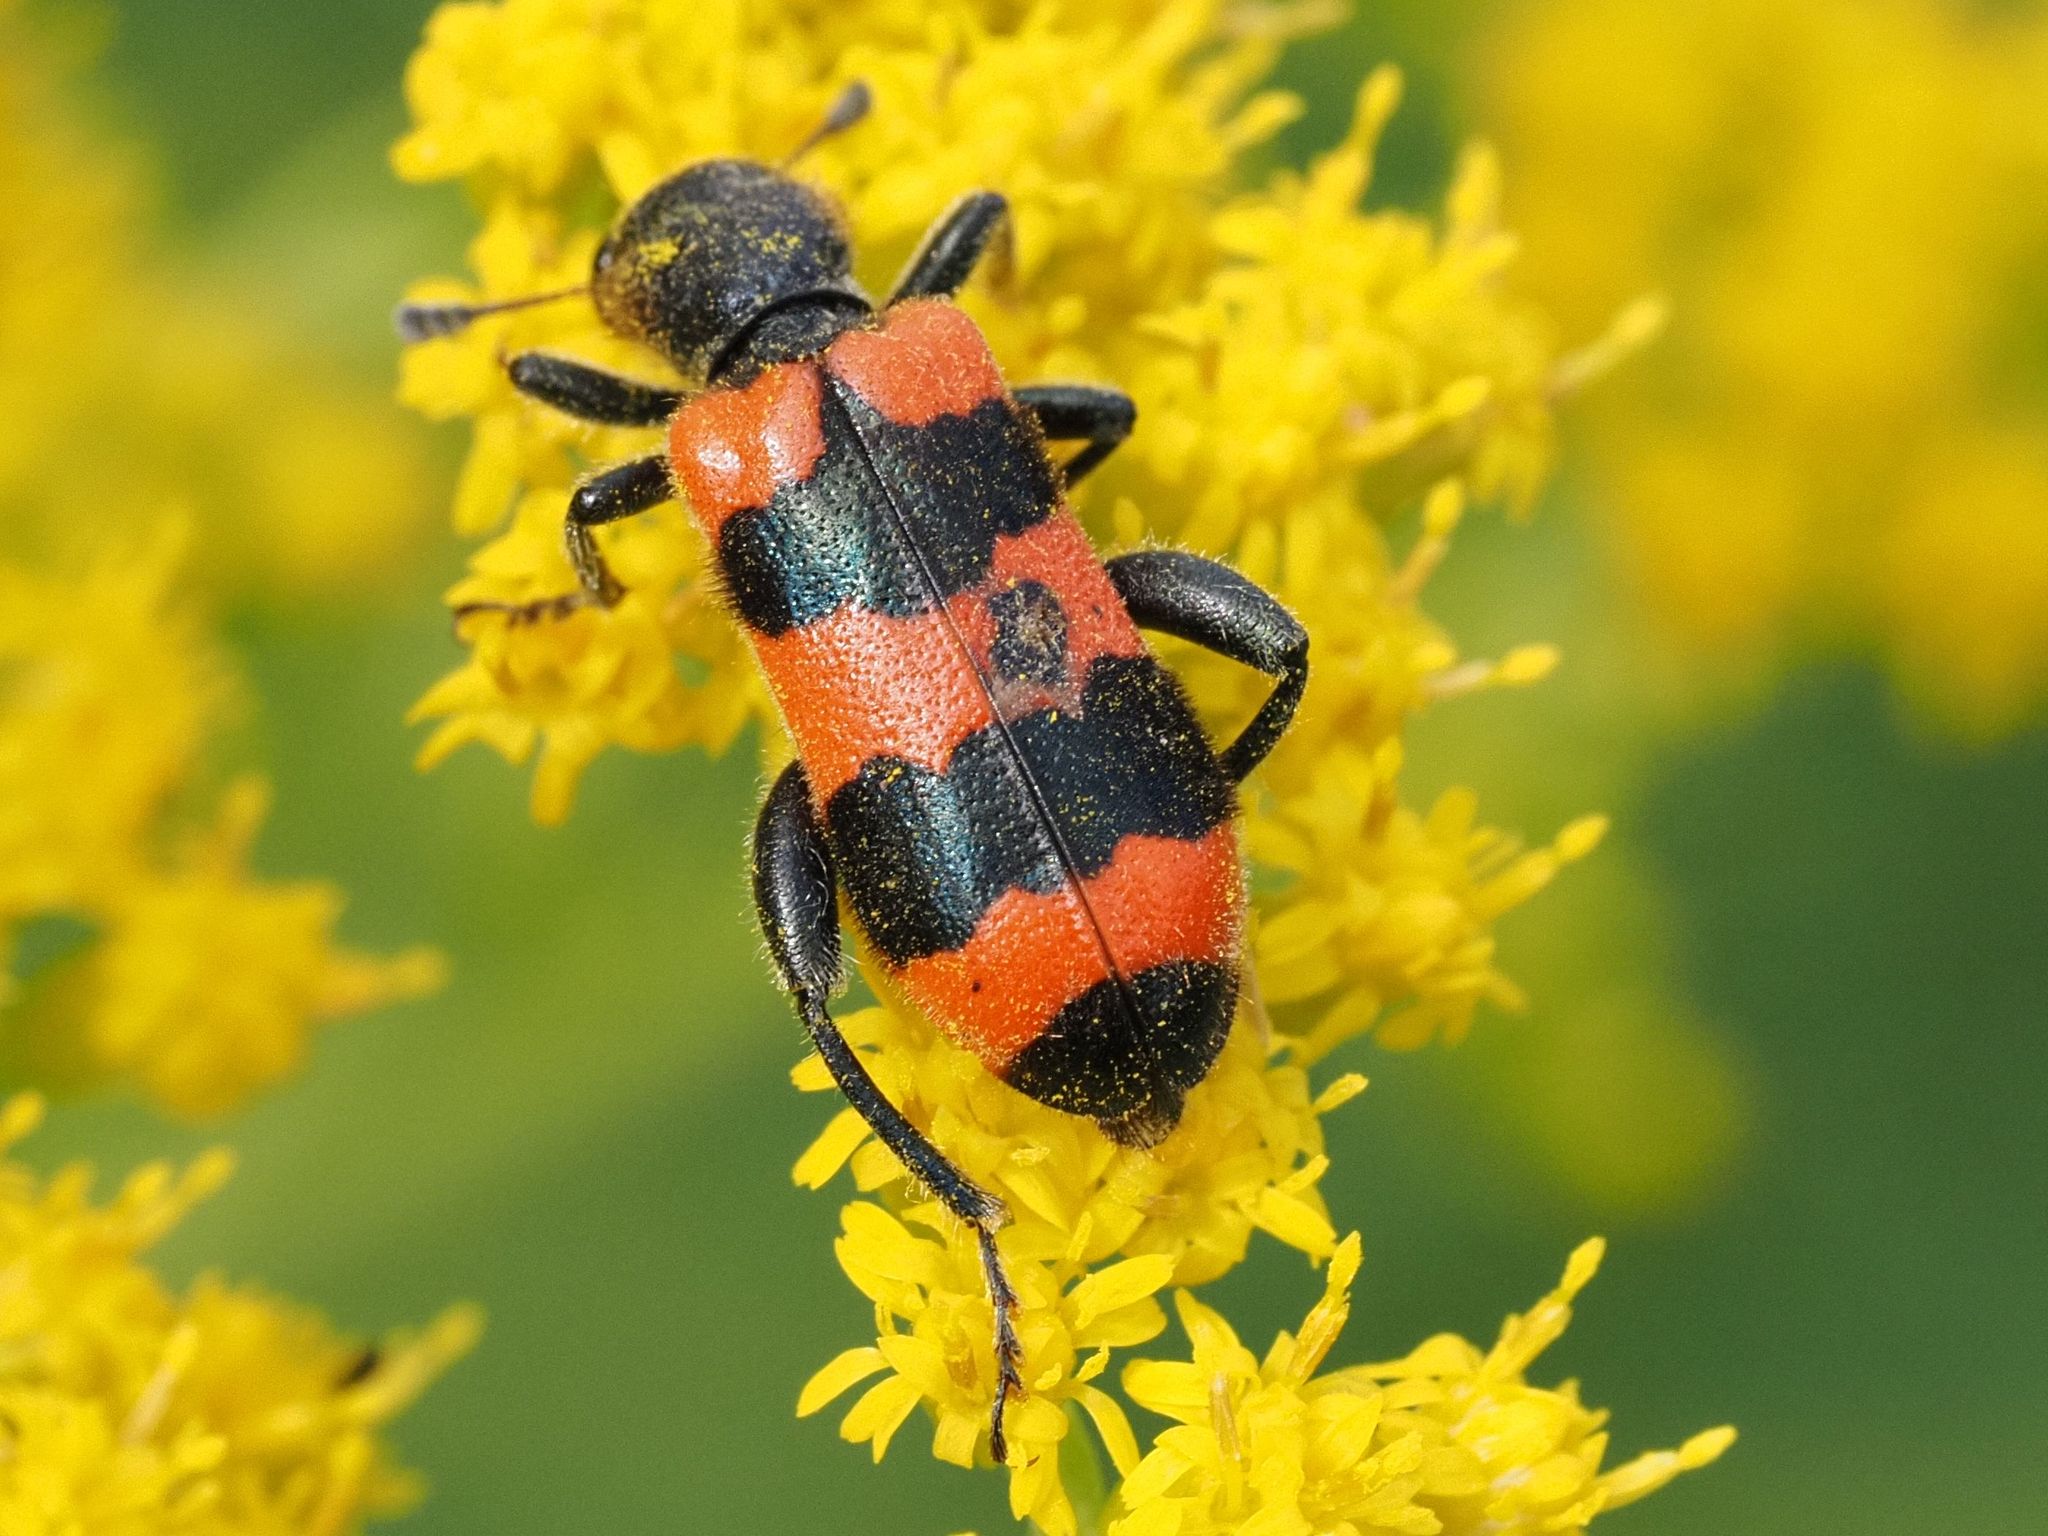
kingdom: Animalia
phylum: Arthropoda
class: Insecta
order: Coleoptera
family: Cleridae
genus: Trichodes
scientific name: Trichodes apiarius
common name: Bee-eating beetle
